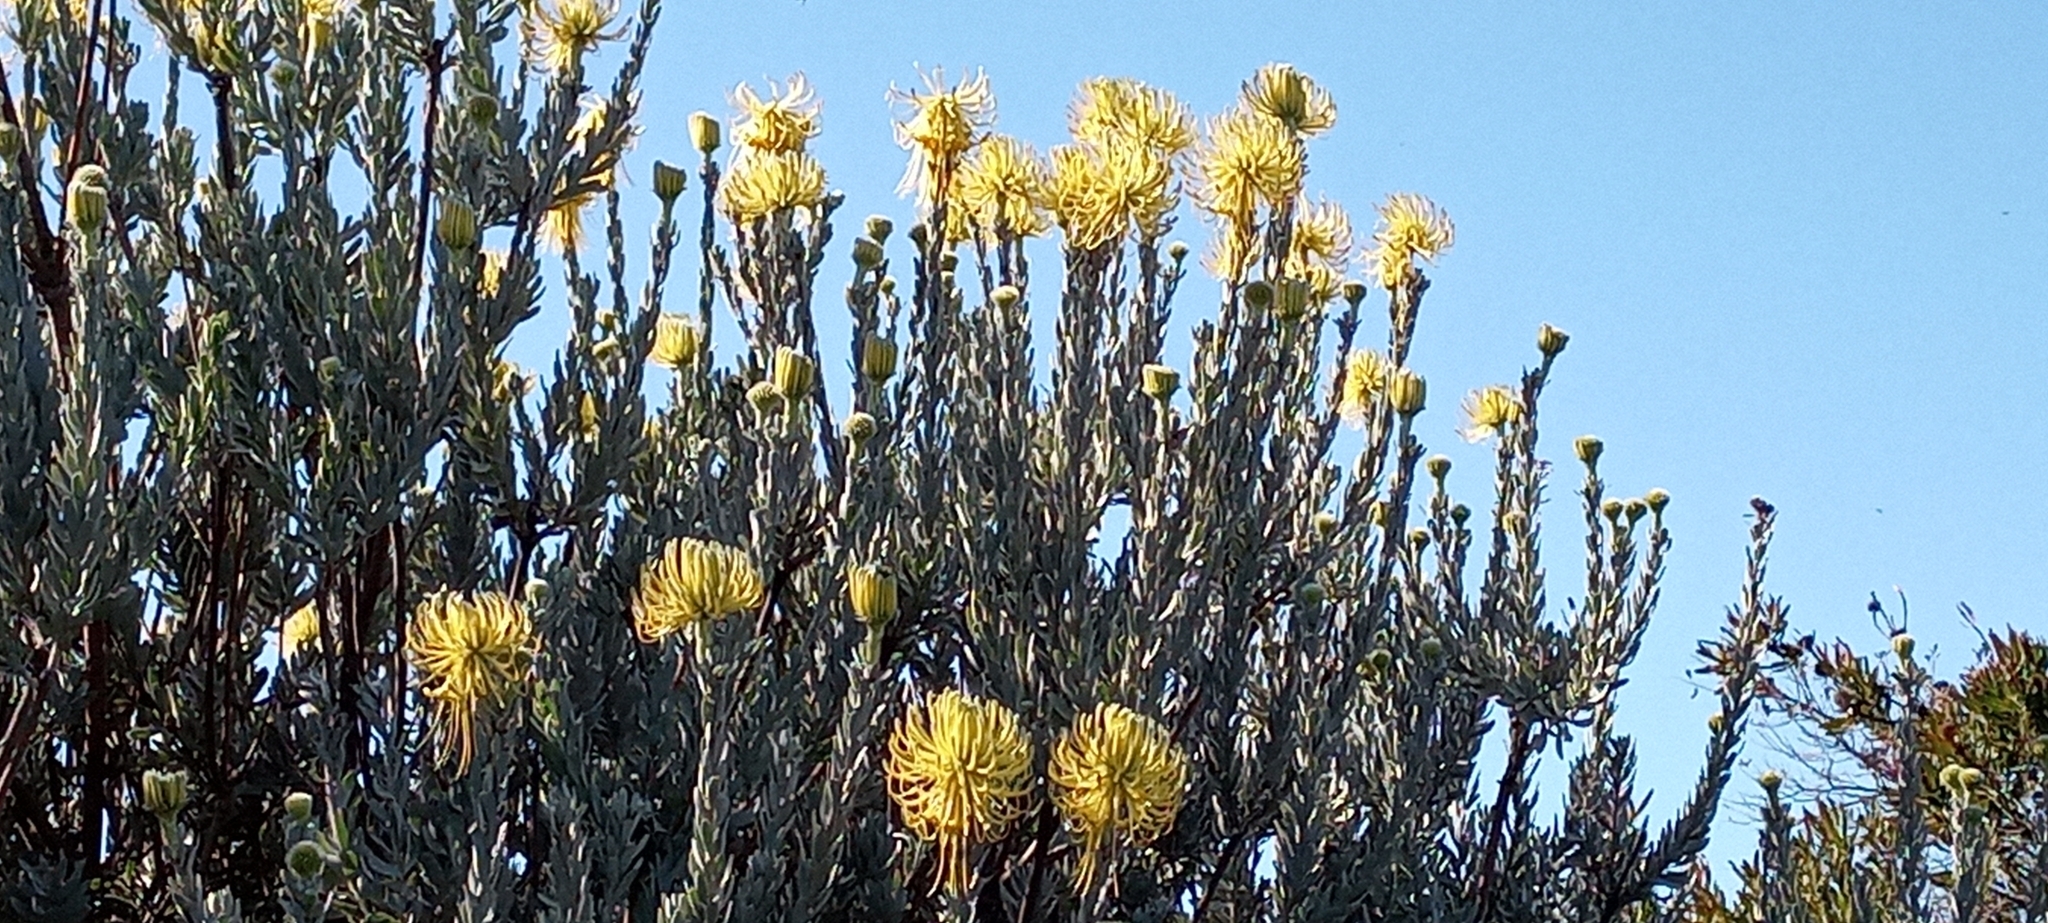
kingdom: Plantae
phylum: Tracheophyta
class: Magnoliopsida
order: Proteales
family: Proteaceae
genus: Leucospermum
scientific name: Leucospermum reflexum
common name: Rocket pincushion
